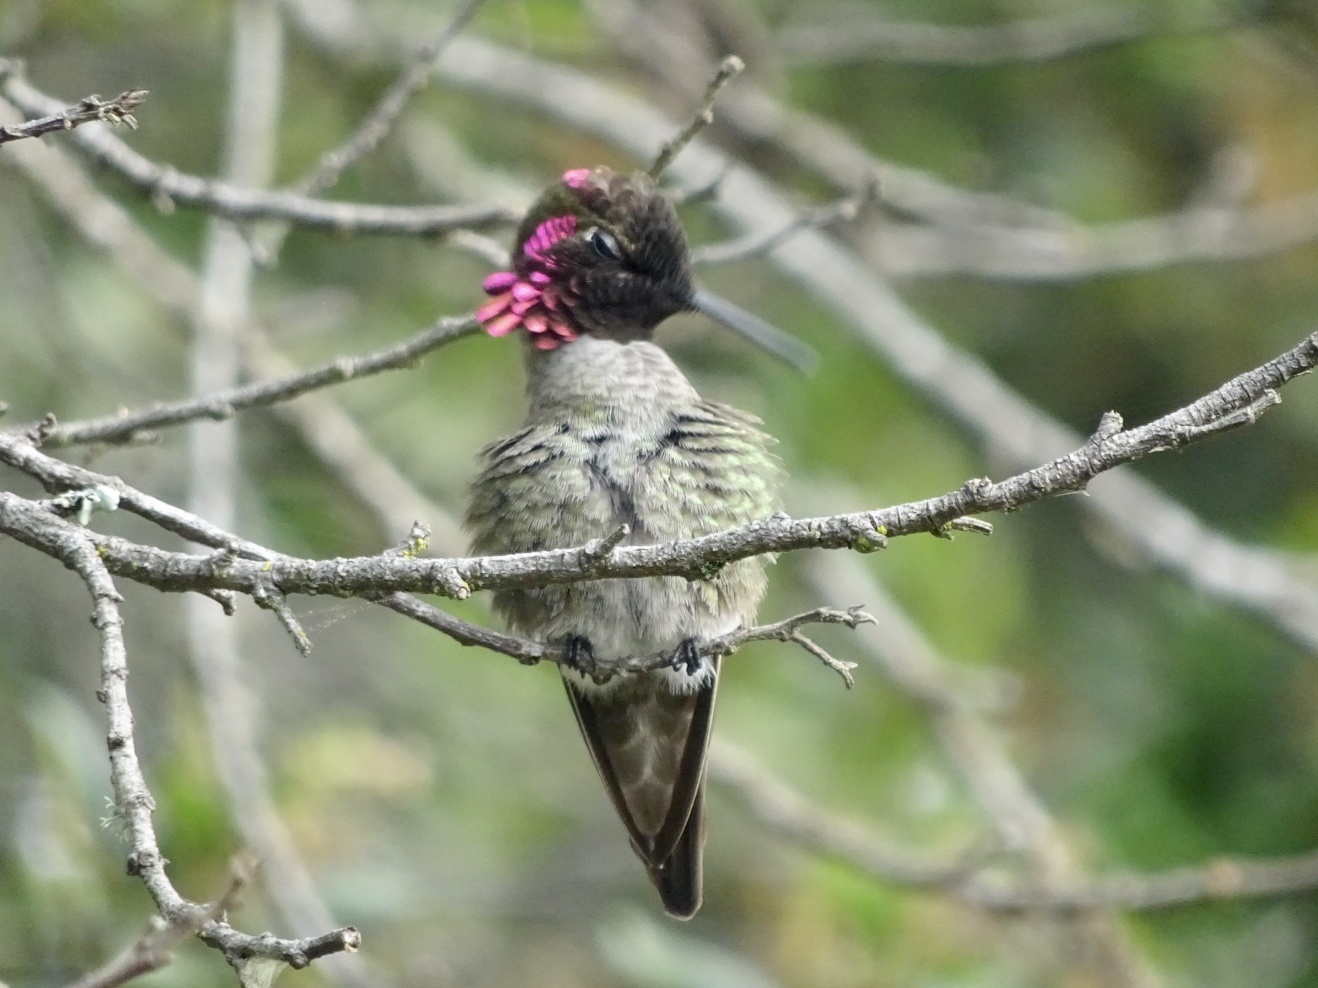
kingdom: Animalia
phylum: Chordata
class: Aves
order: Apodiformes
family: Trochilidae
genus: Calypte
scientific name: Calypte anna
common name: Anna's hummingbird
